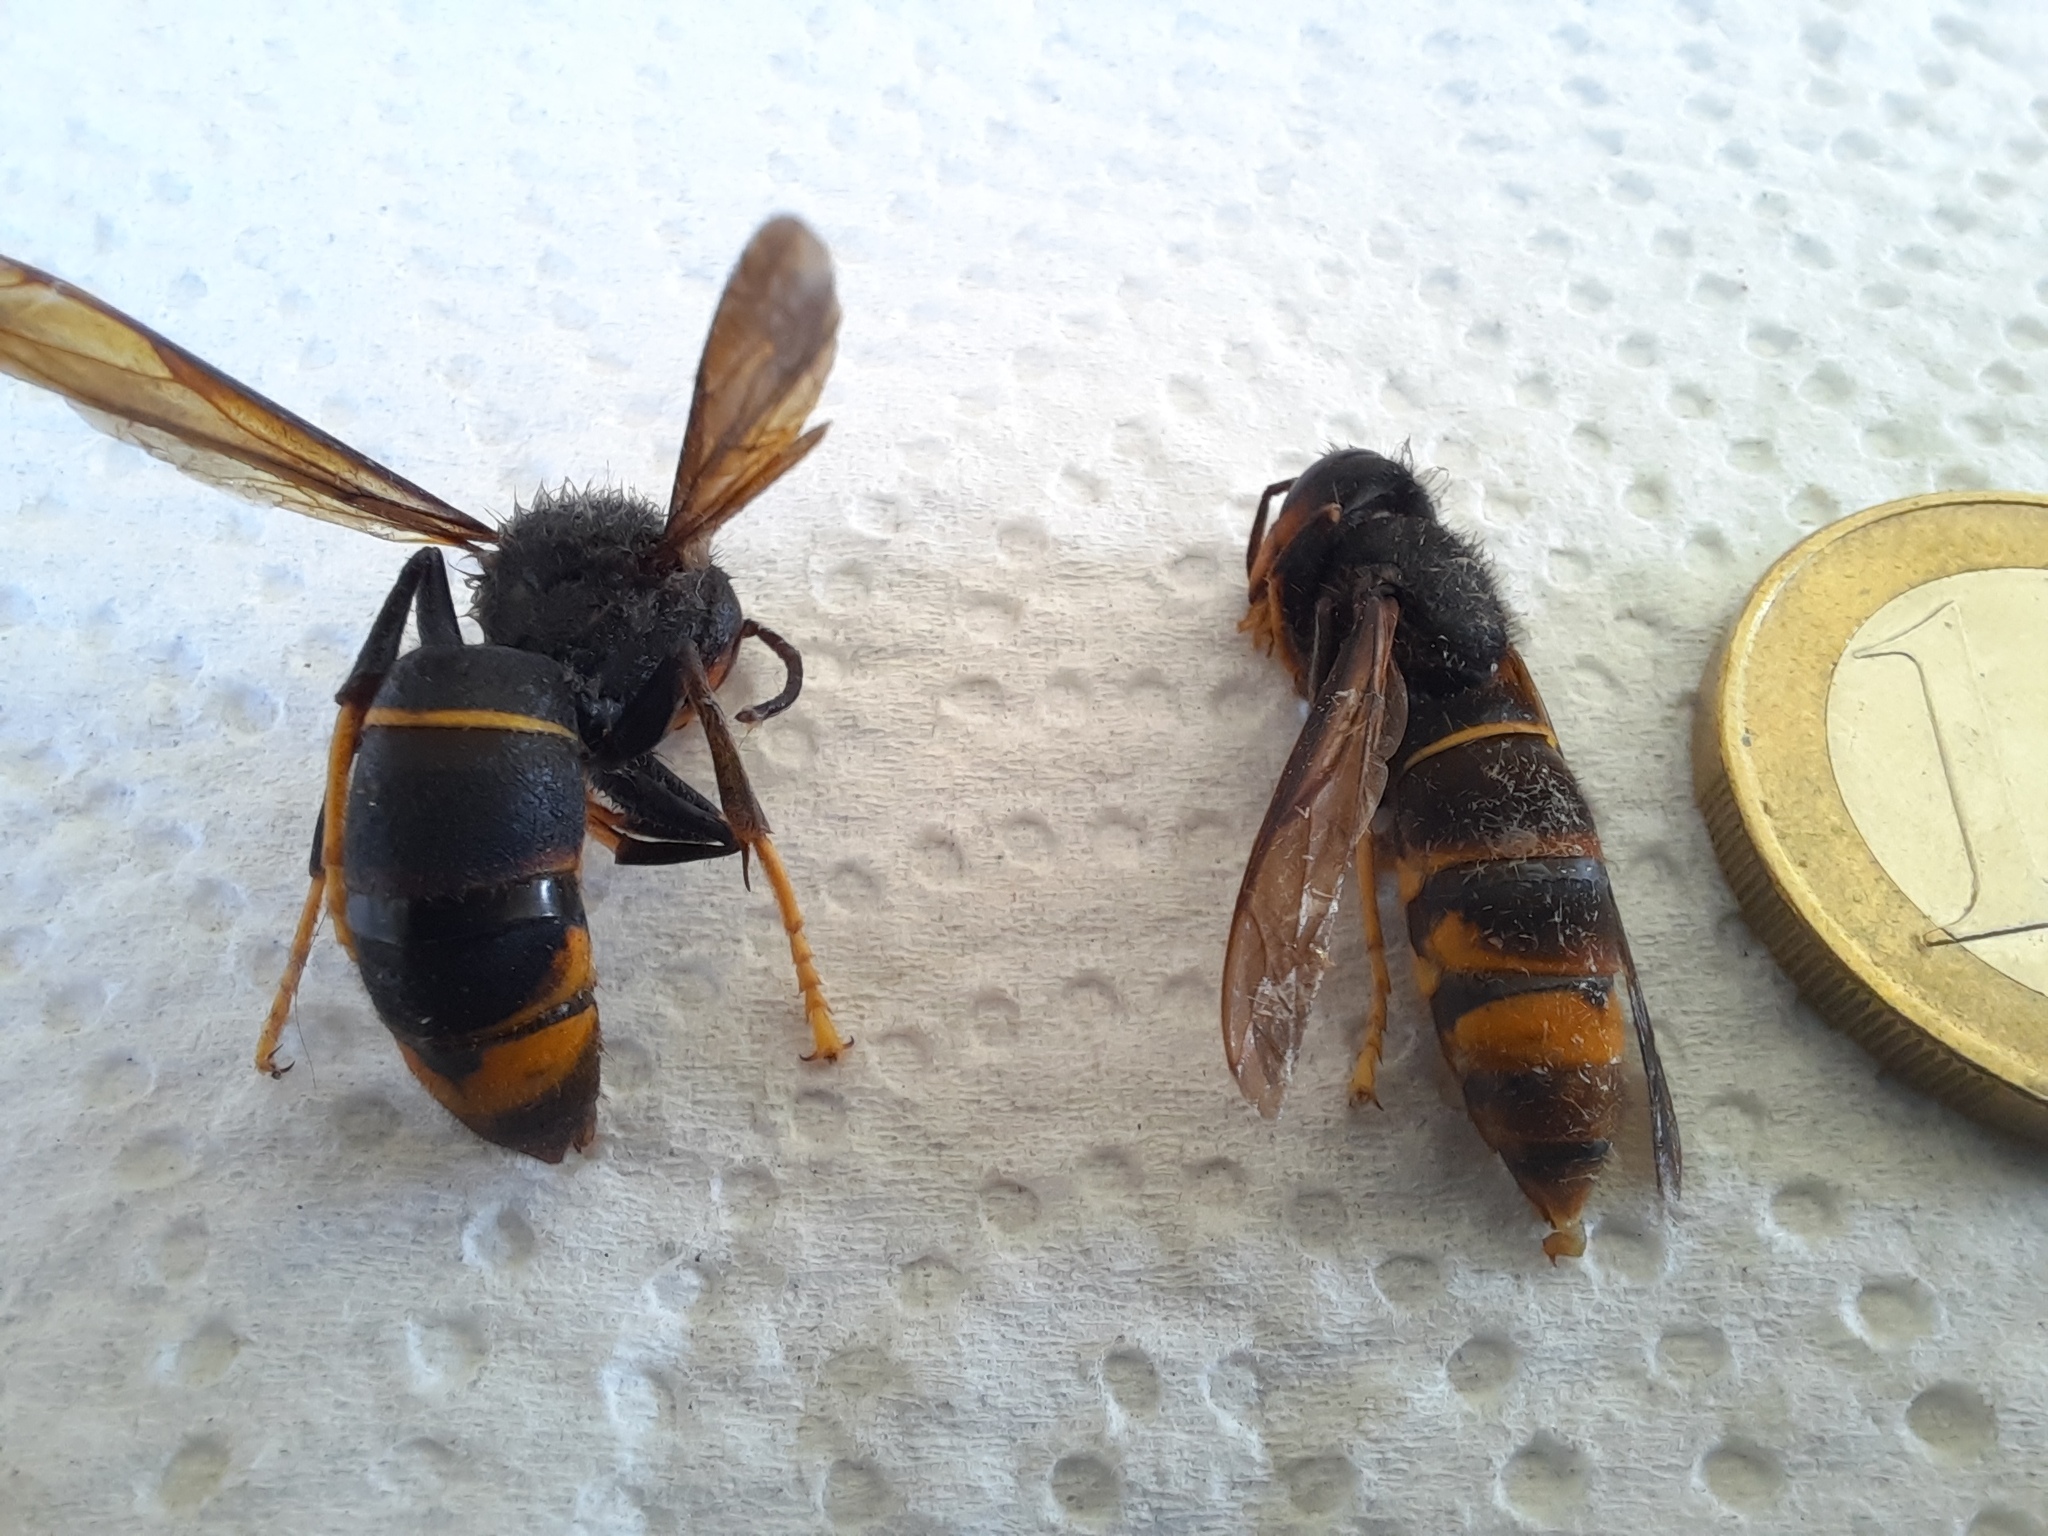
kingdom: Animalia
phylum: Arthropoda
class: Insecta
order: Hymenoptera
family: Vespidae
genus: Vespa
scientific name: Vespa velutina
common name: Asian hornet
